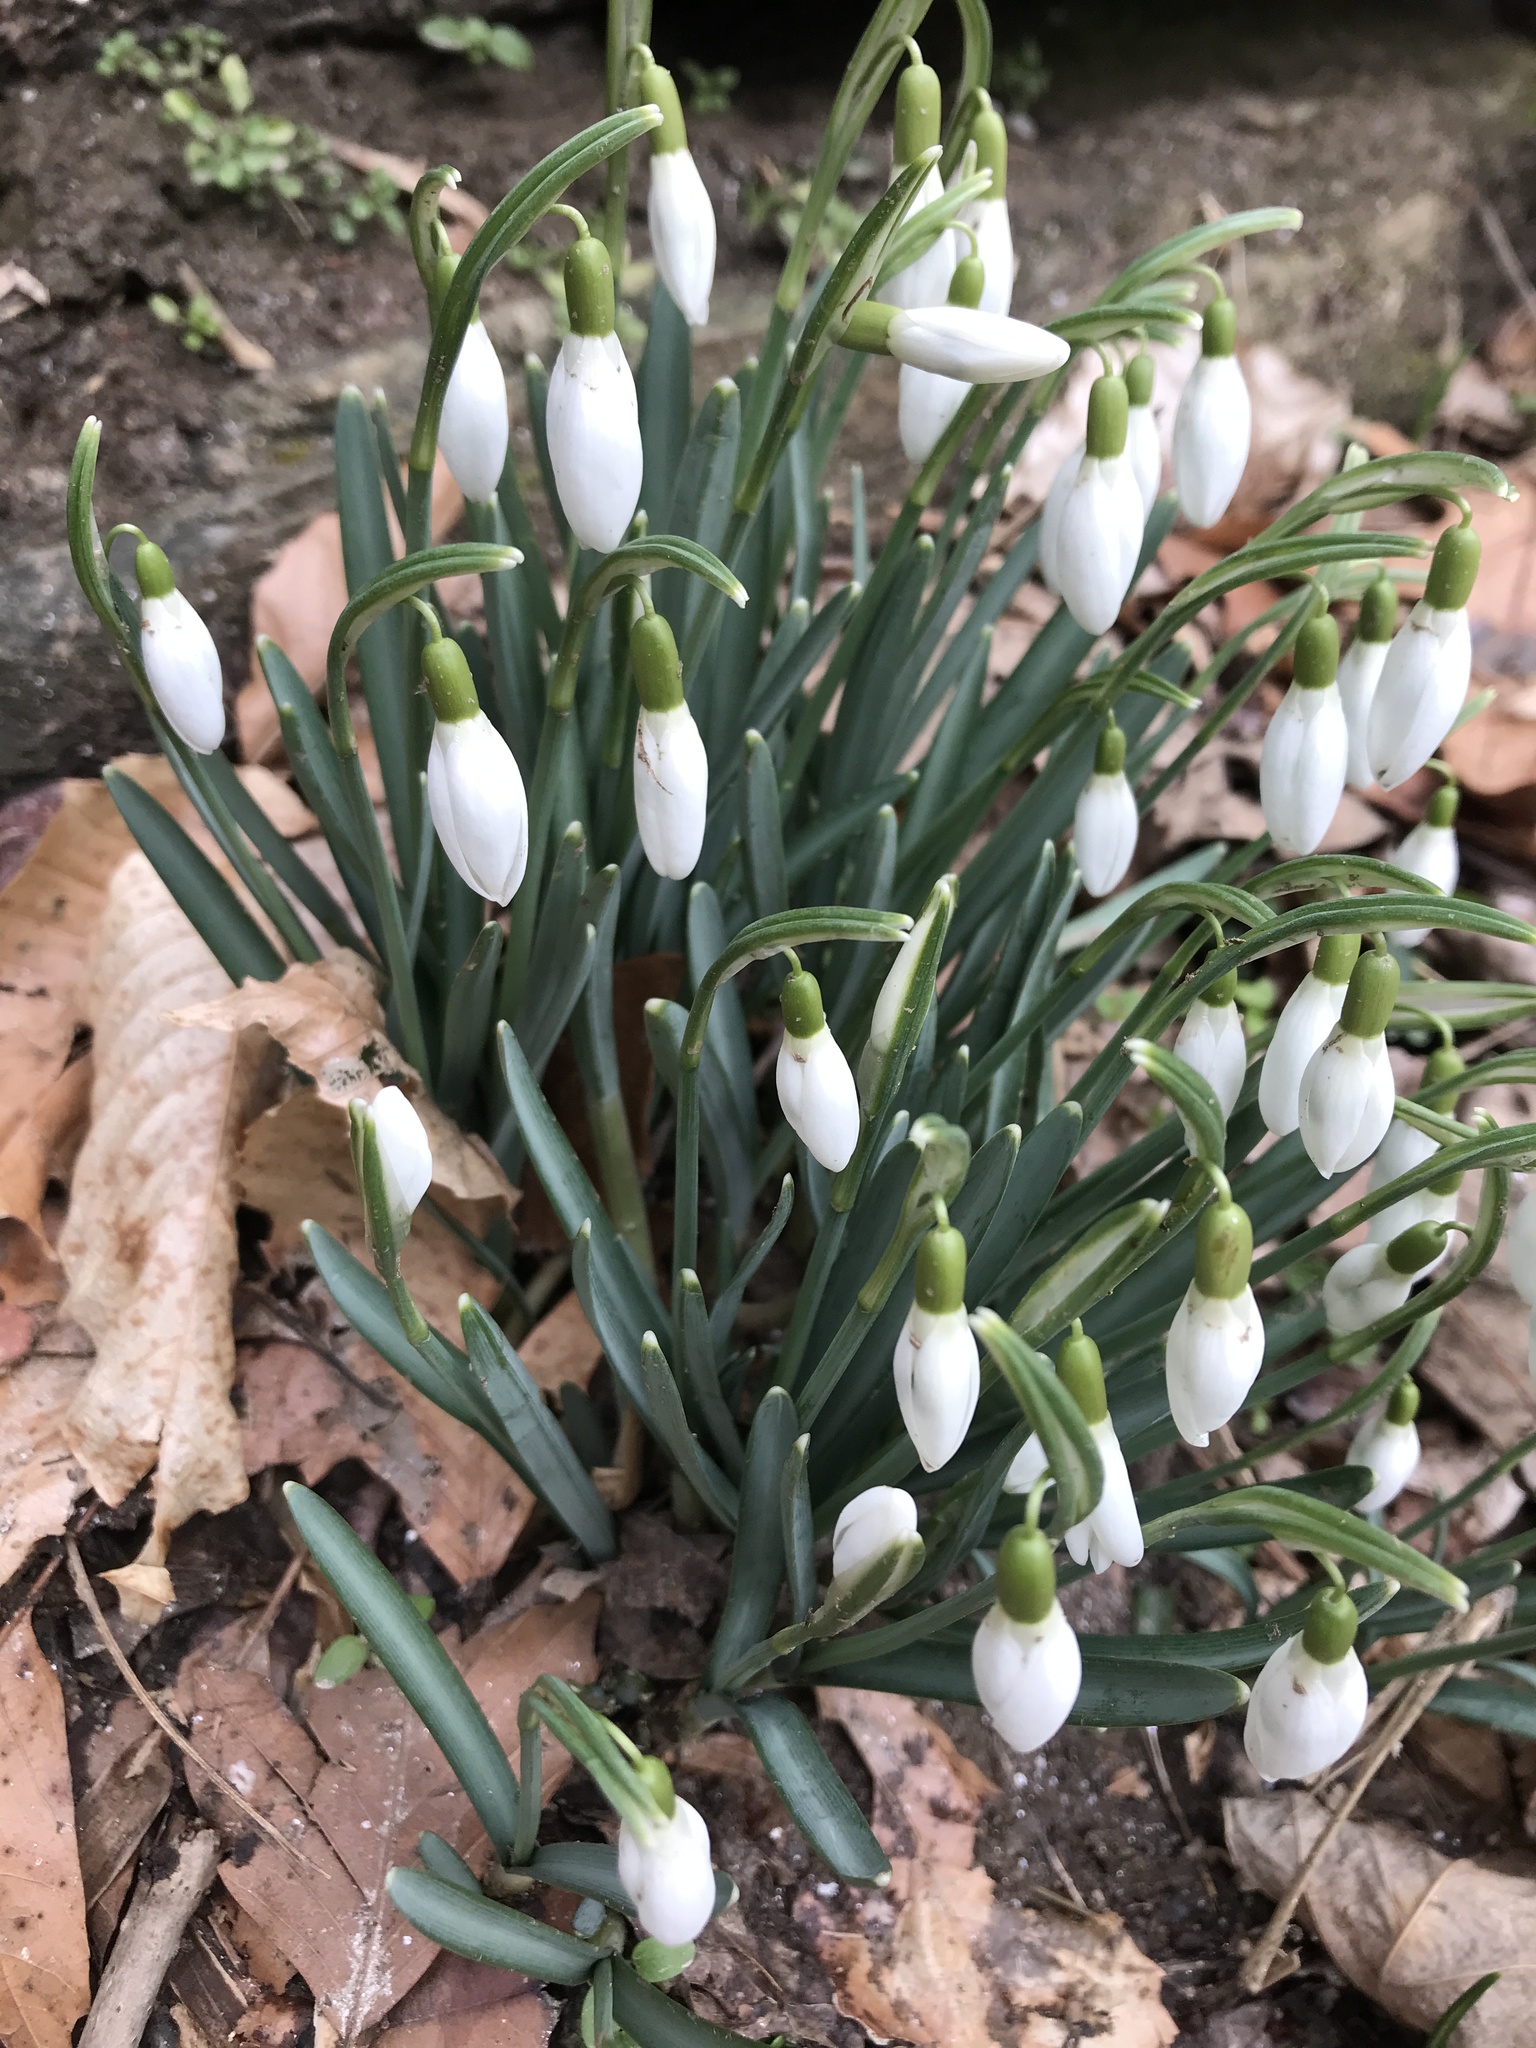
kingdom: Plantae
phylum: Tracheophyta
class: Liliopsida
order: Asparagales
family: Amaryllidaceae
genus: Galanthus
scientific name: Galanthus nivalis
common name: Snowdrop
